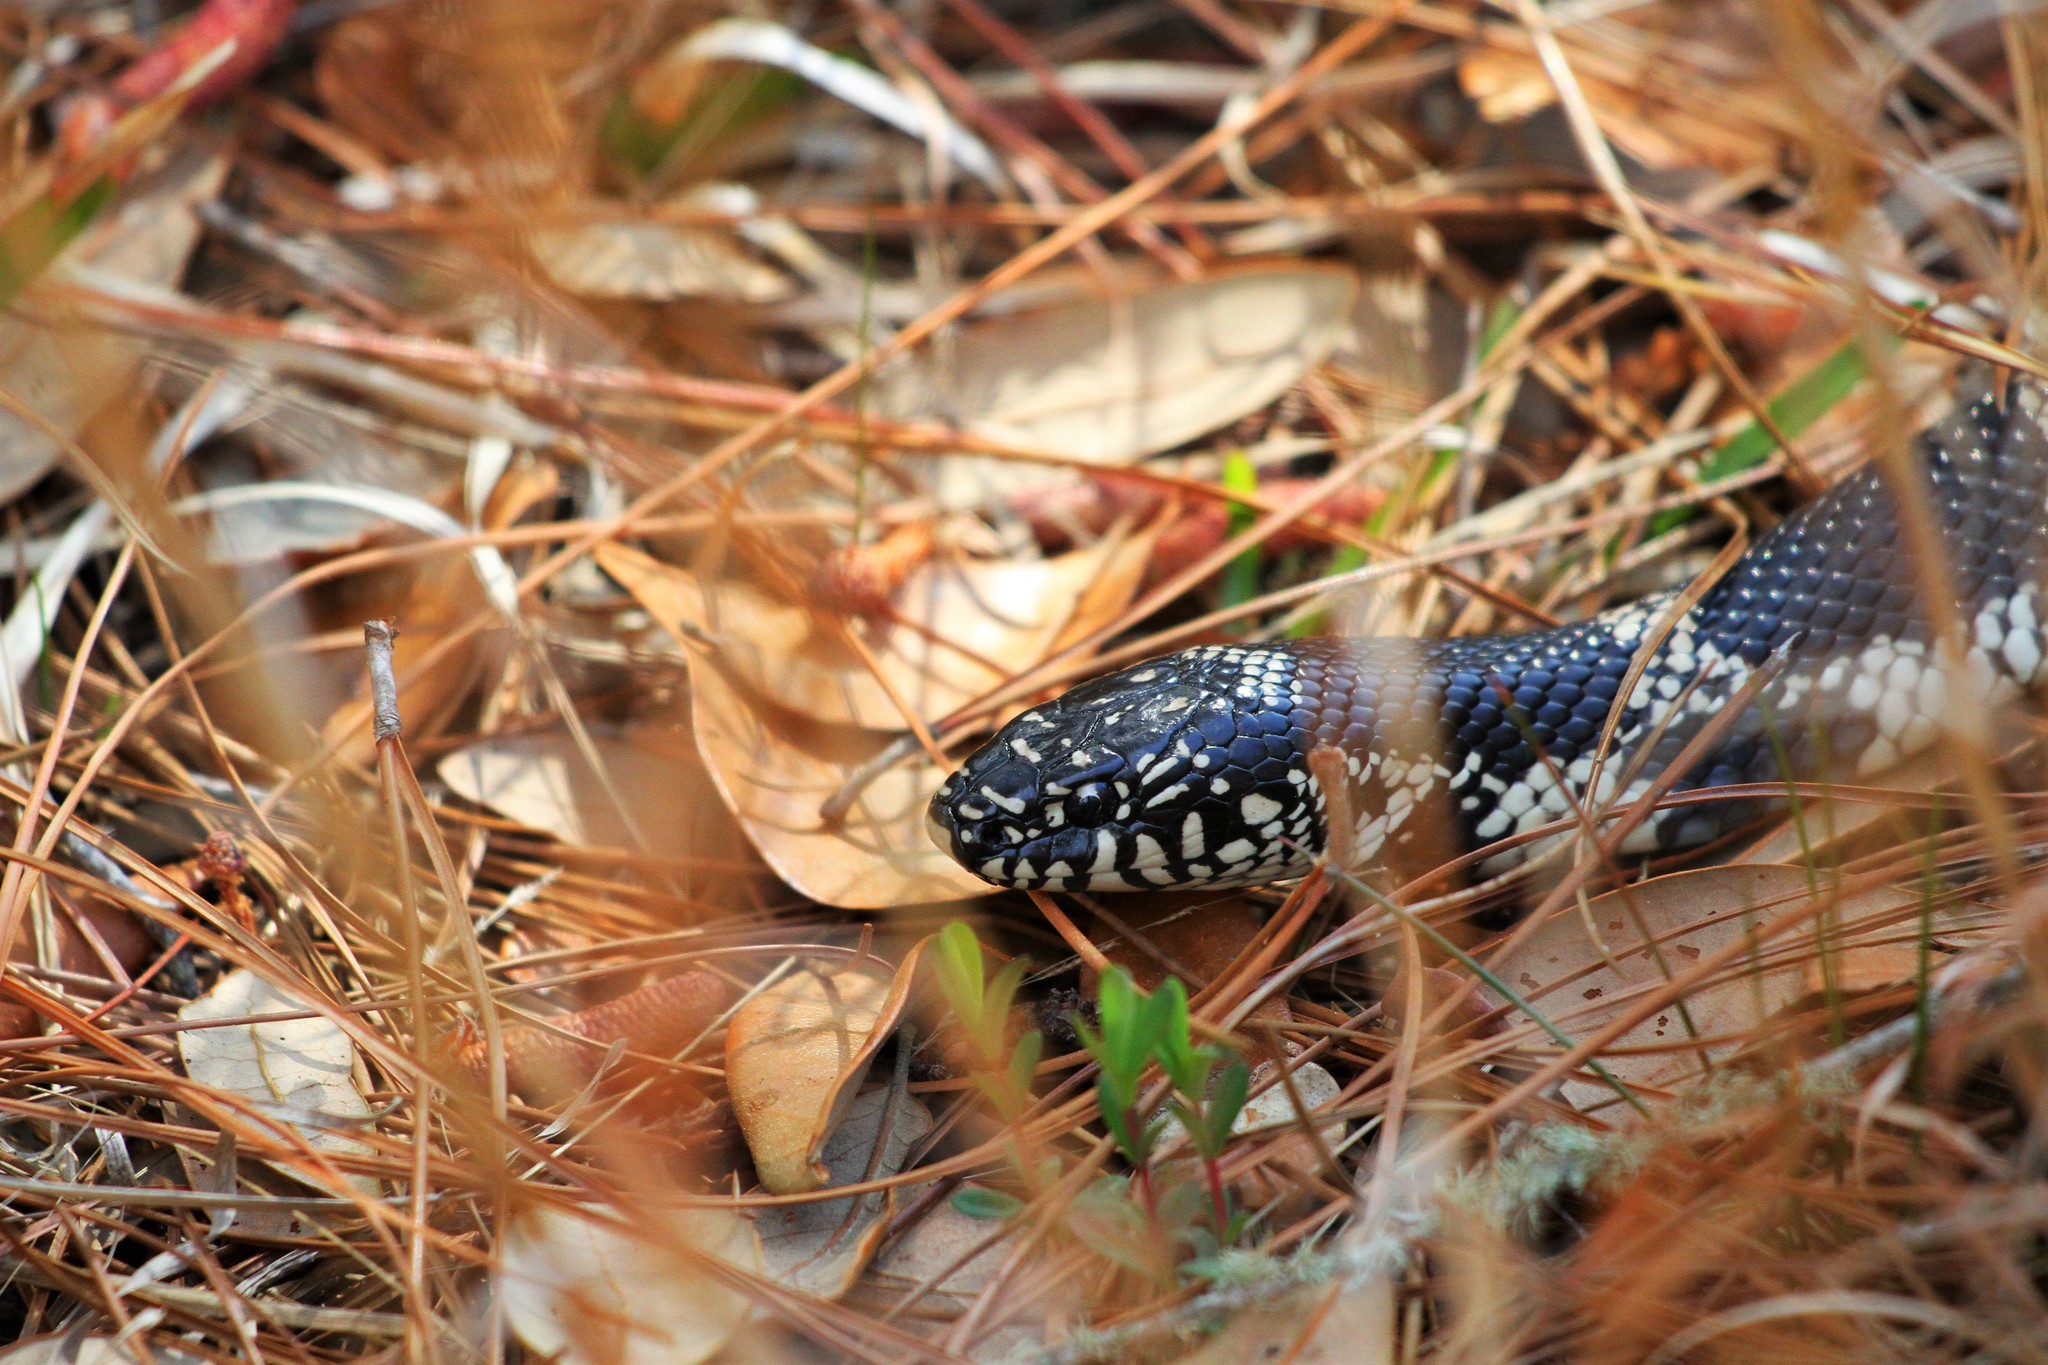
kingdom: Animalia
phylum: Chordata
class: Squamata
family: Colubridae
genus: Lampropeltis
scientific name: Lampropeltis getula
